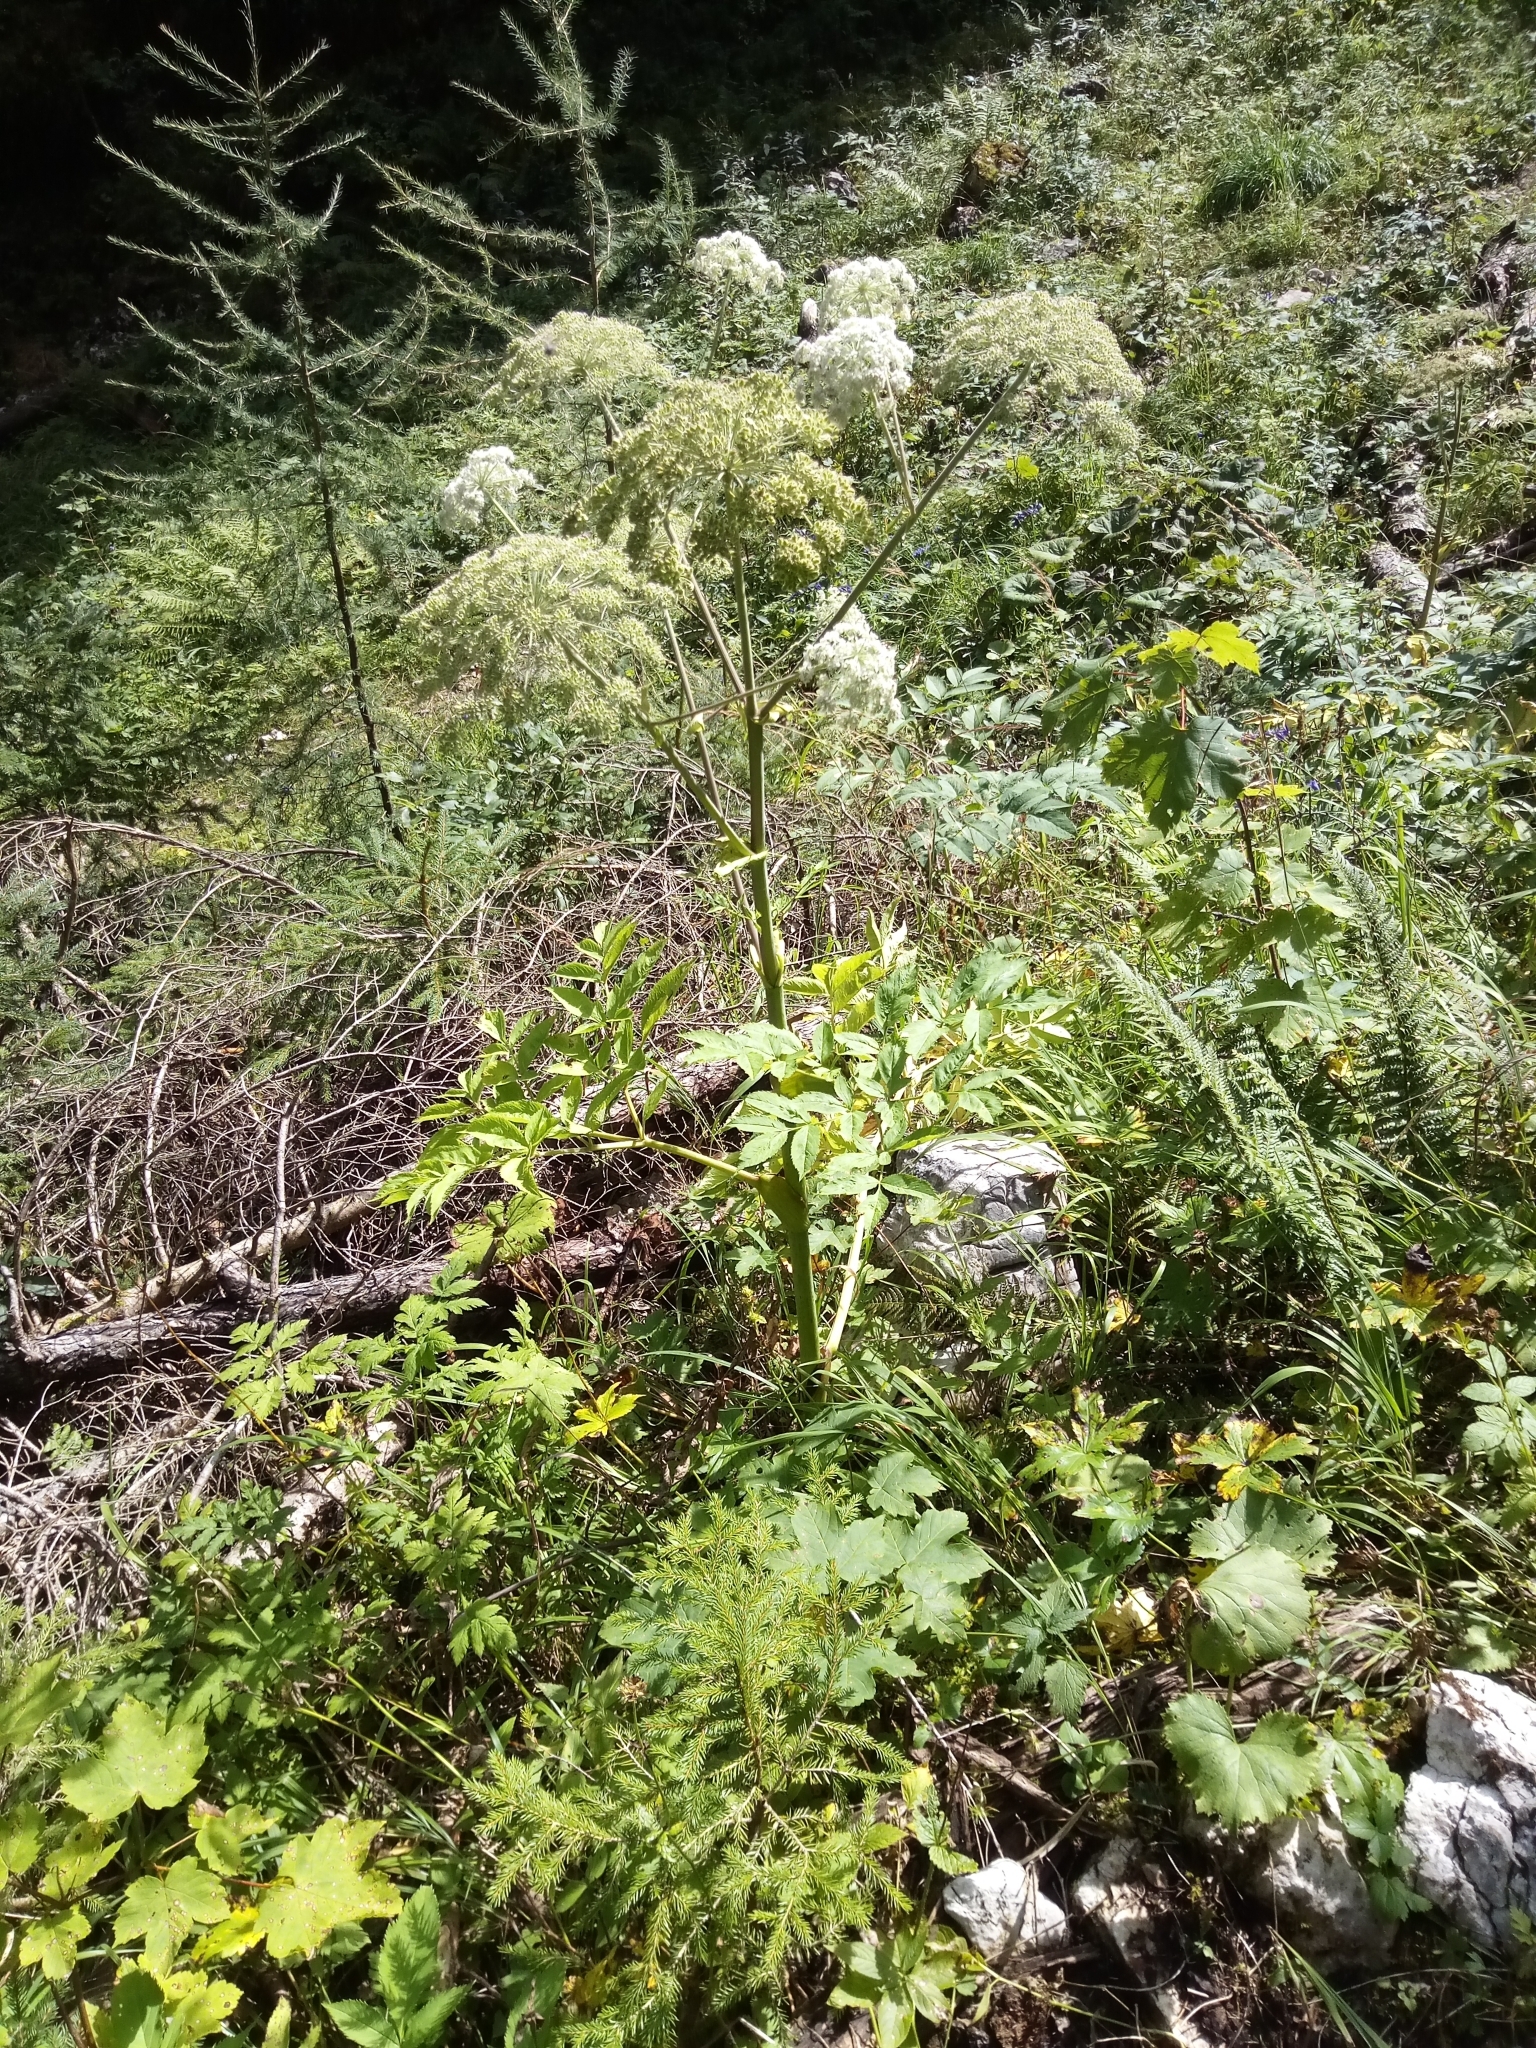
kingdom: Plantae
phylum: Tracheophyta
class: Magnoliopsida
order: Apiales
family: Apiaceae
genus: Angelica
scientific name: Angelica sylvestris
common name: Wild angelica
